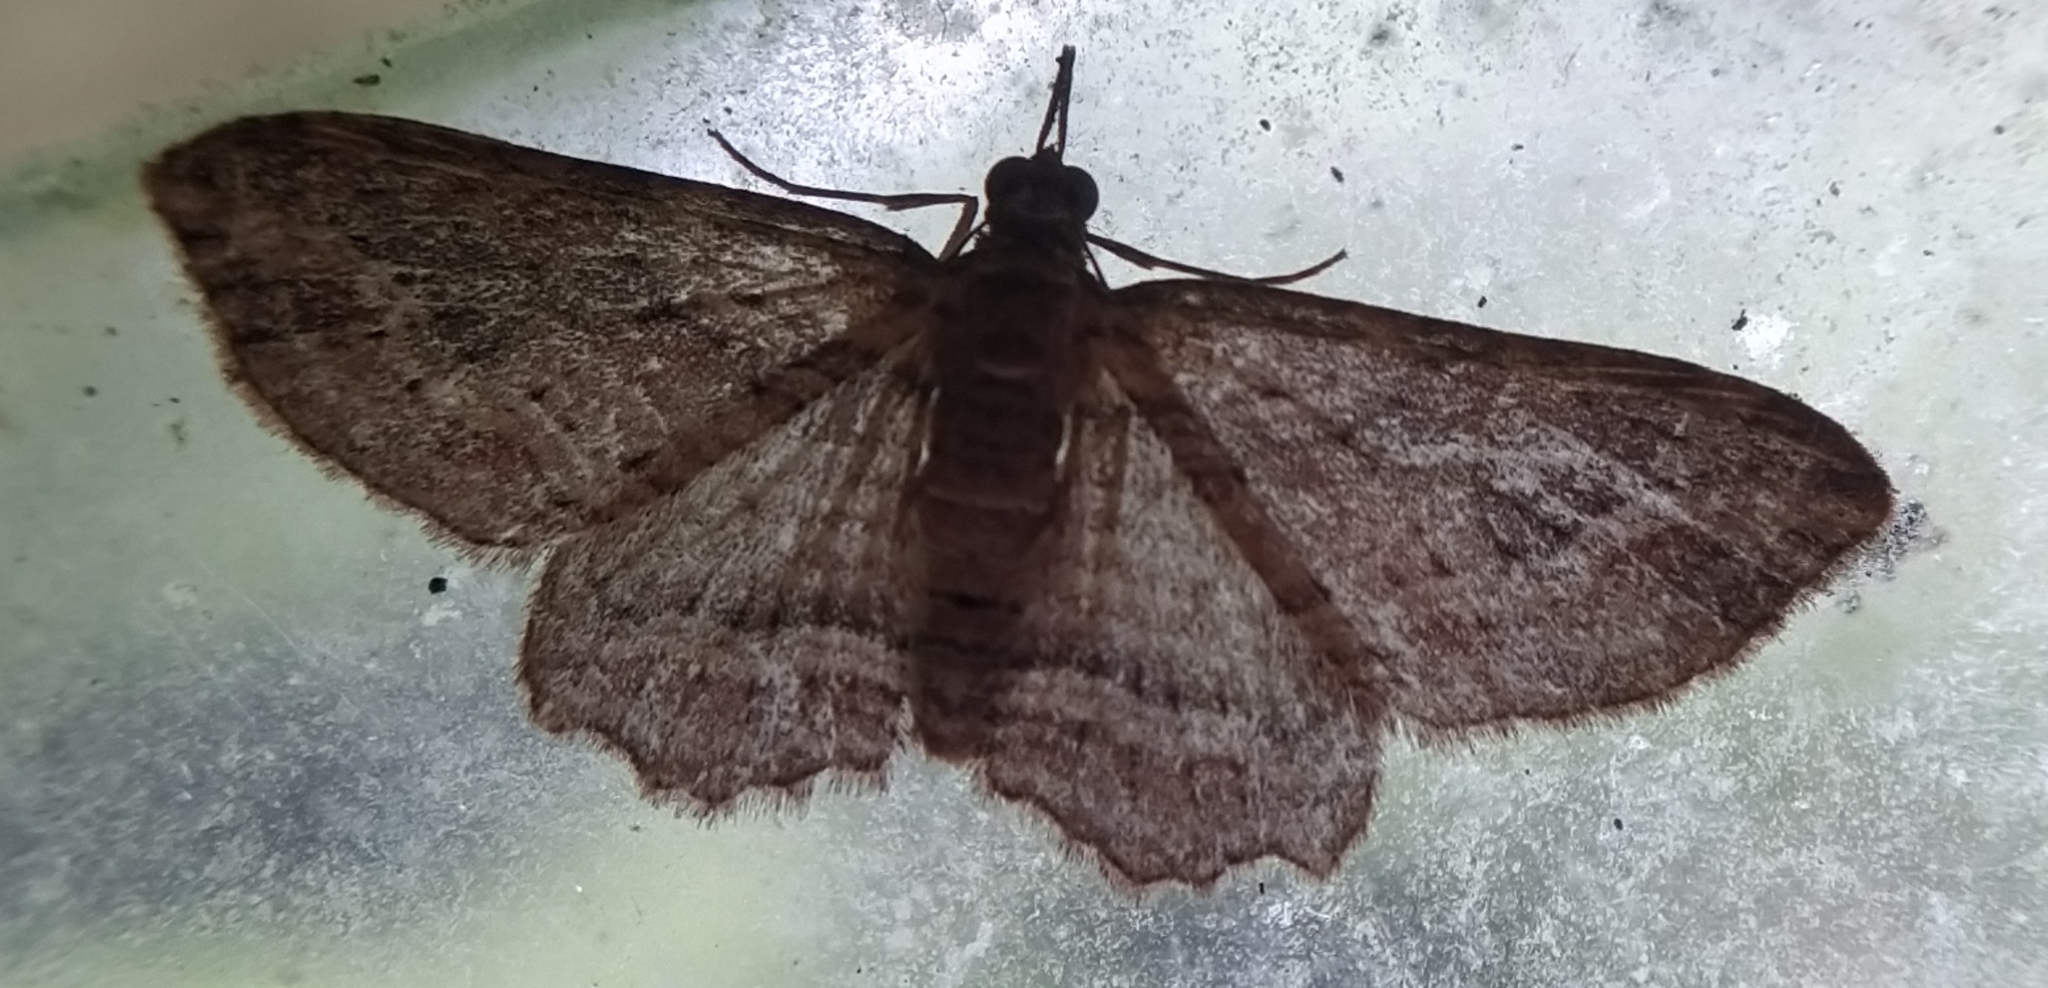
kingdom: Animalia
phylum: Arthropoda
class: Insecta
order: Lepidoptera
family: Geometridae
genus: Chloroclystis
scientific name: Chloroclystis filata
